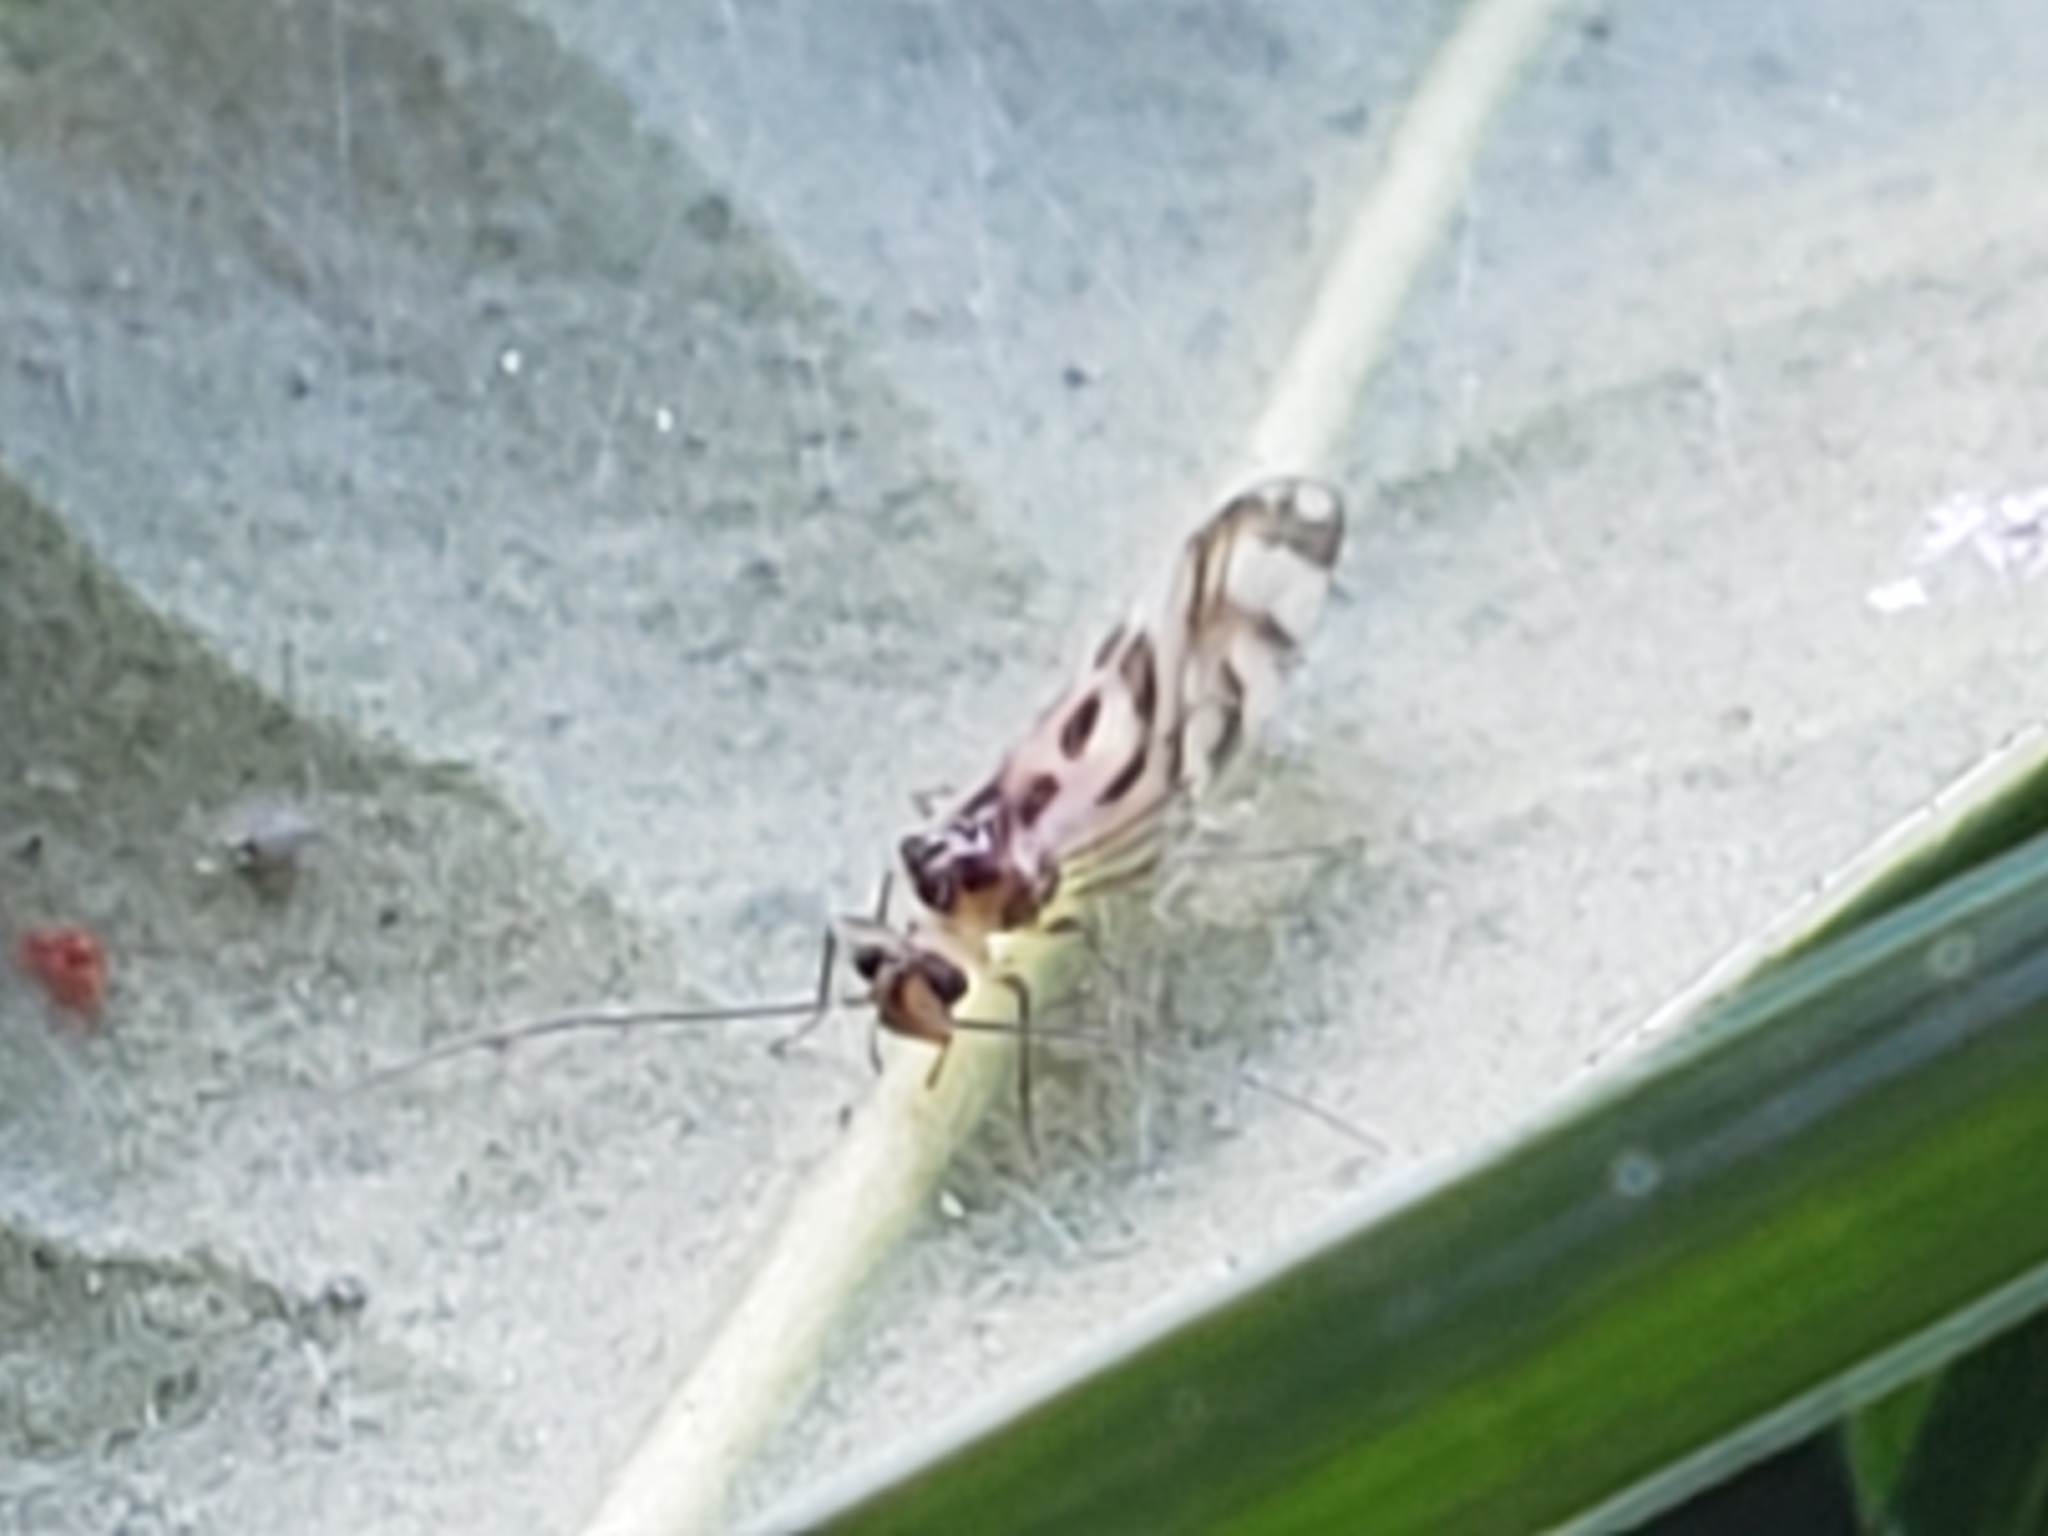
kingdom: Animalia
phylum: Arthropoda
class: Insecta
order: Psocodea
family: Stenopsocidae
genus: Graphopsocus
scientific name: Graphopsocus cruciatus
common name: Lizard bark louse
